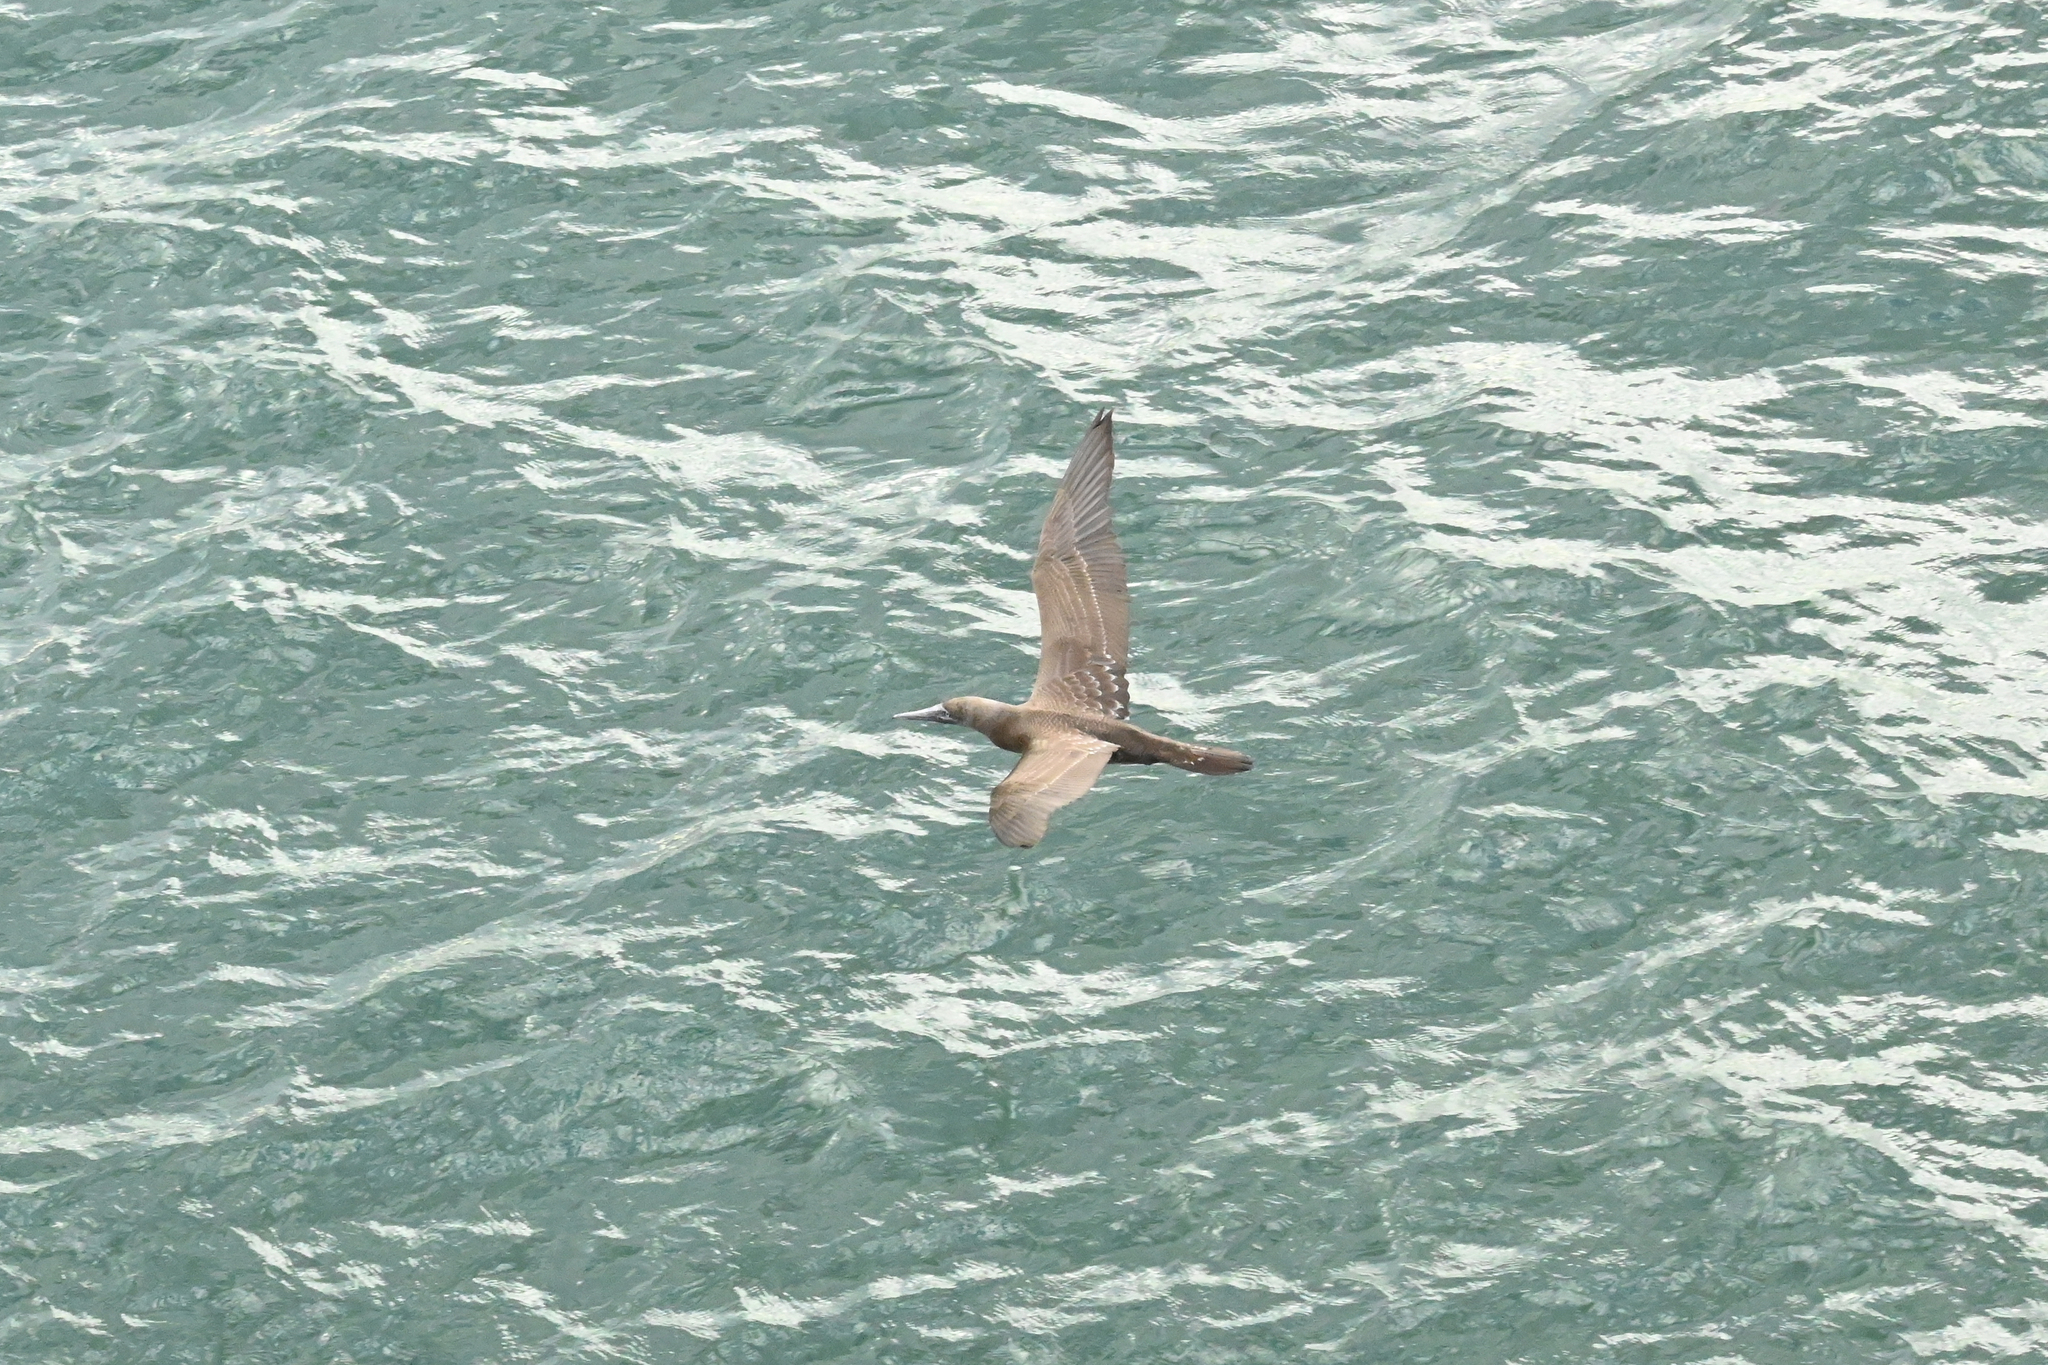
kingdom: Animalia
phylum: Chordata
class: Aves
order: Suliformes
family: Sulidae
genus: Sula
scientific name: Sula leucogaster
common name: Brown booby
